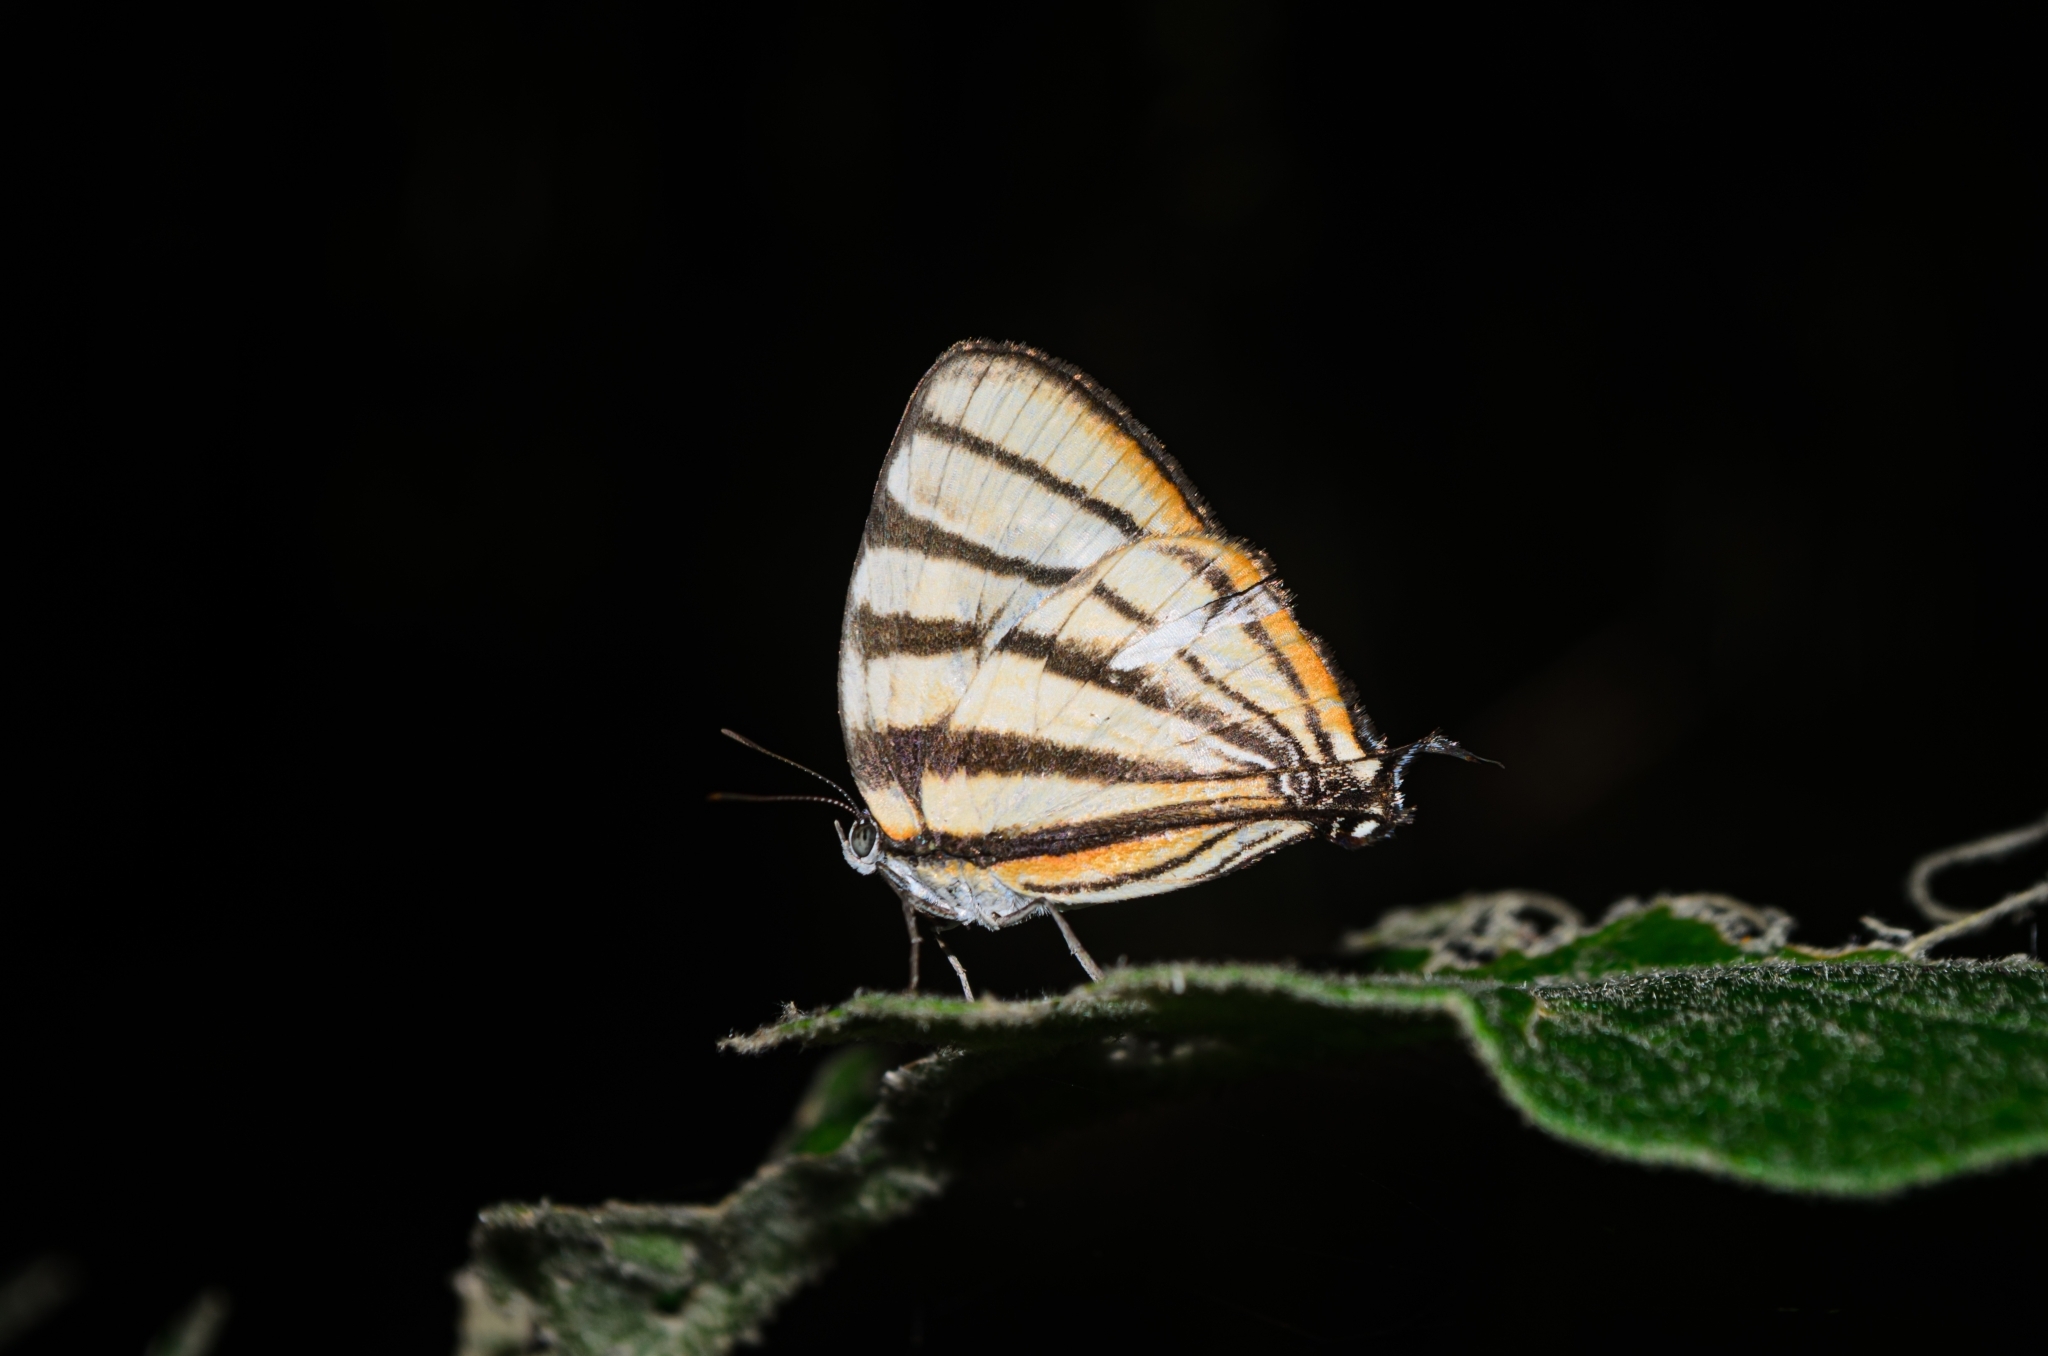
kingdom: Animalia
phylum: Arthropoda
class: Insecta
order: Lepidoptera
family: Lycaenidae
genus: Arawacus
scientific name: Arawacus separata
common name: Separated stripestreak
